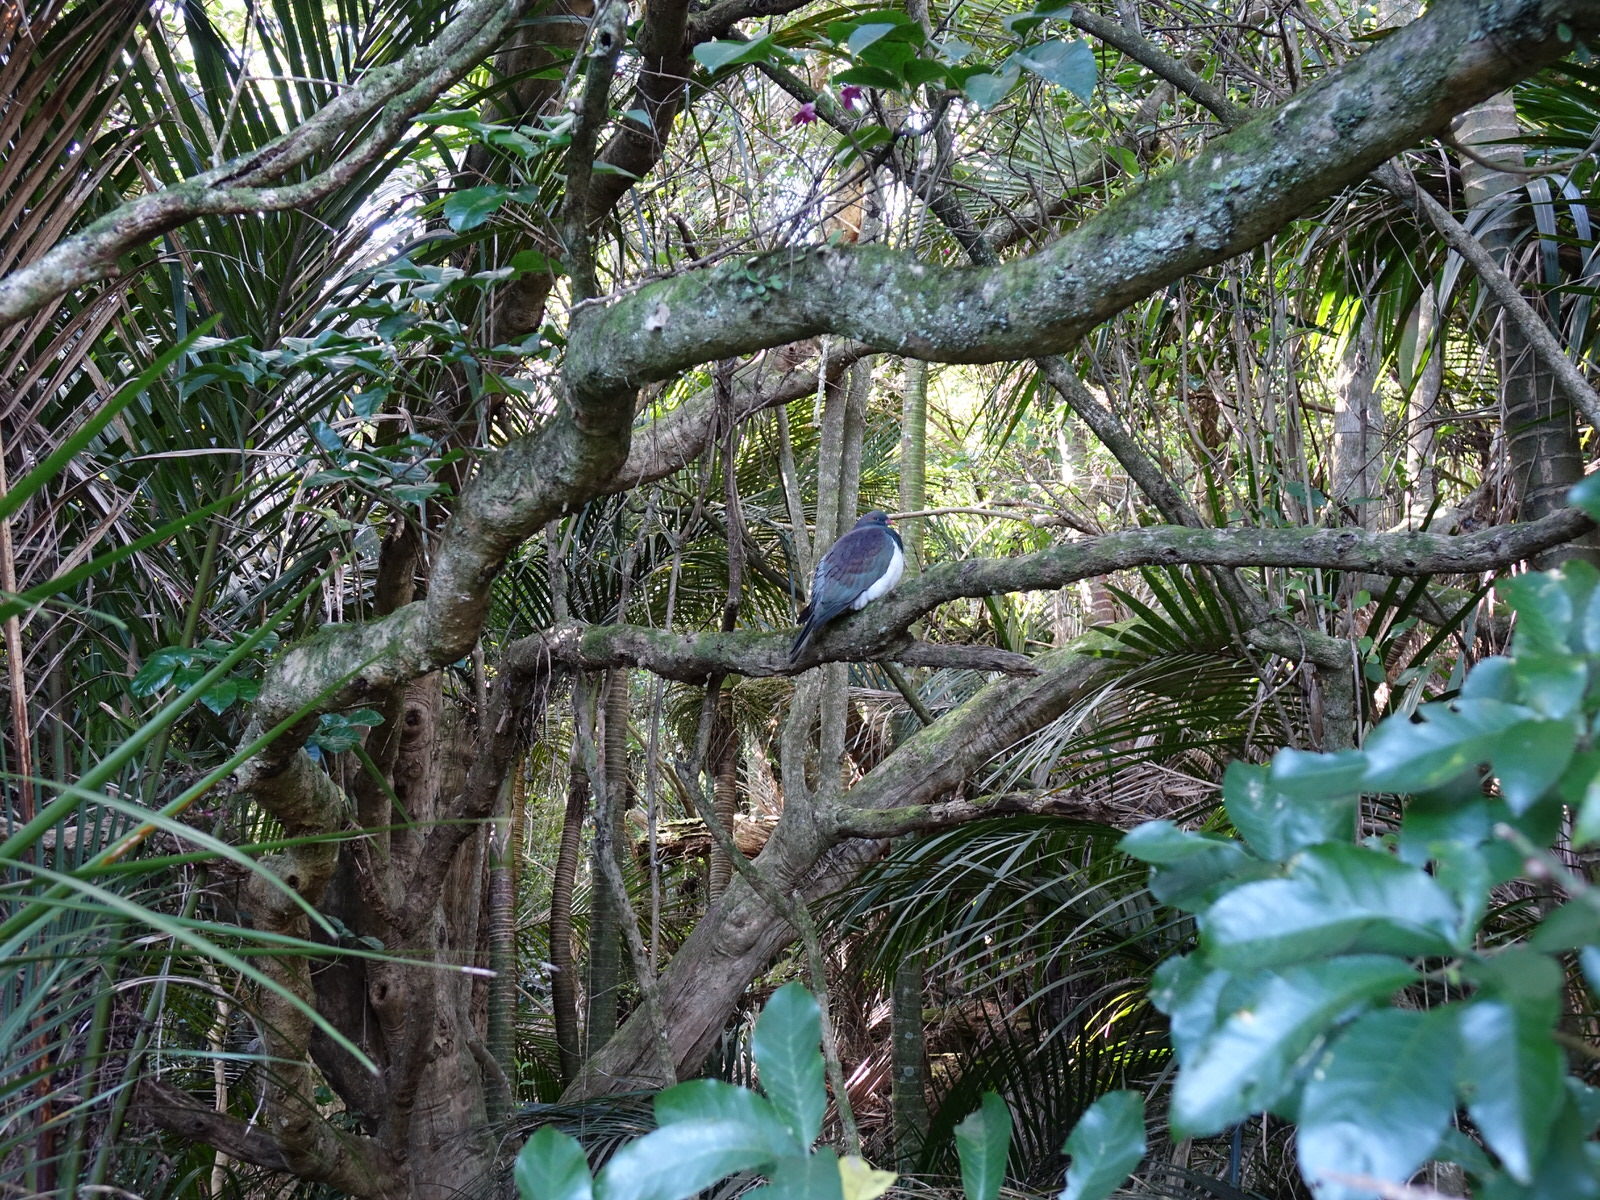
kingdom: Animalia
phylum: Chordata
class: Aves
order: Columbiformes
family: Columbidae
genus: Hemiphaga
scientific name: Hemiphaga novaeseelandiae
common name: New zealand pigeon
